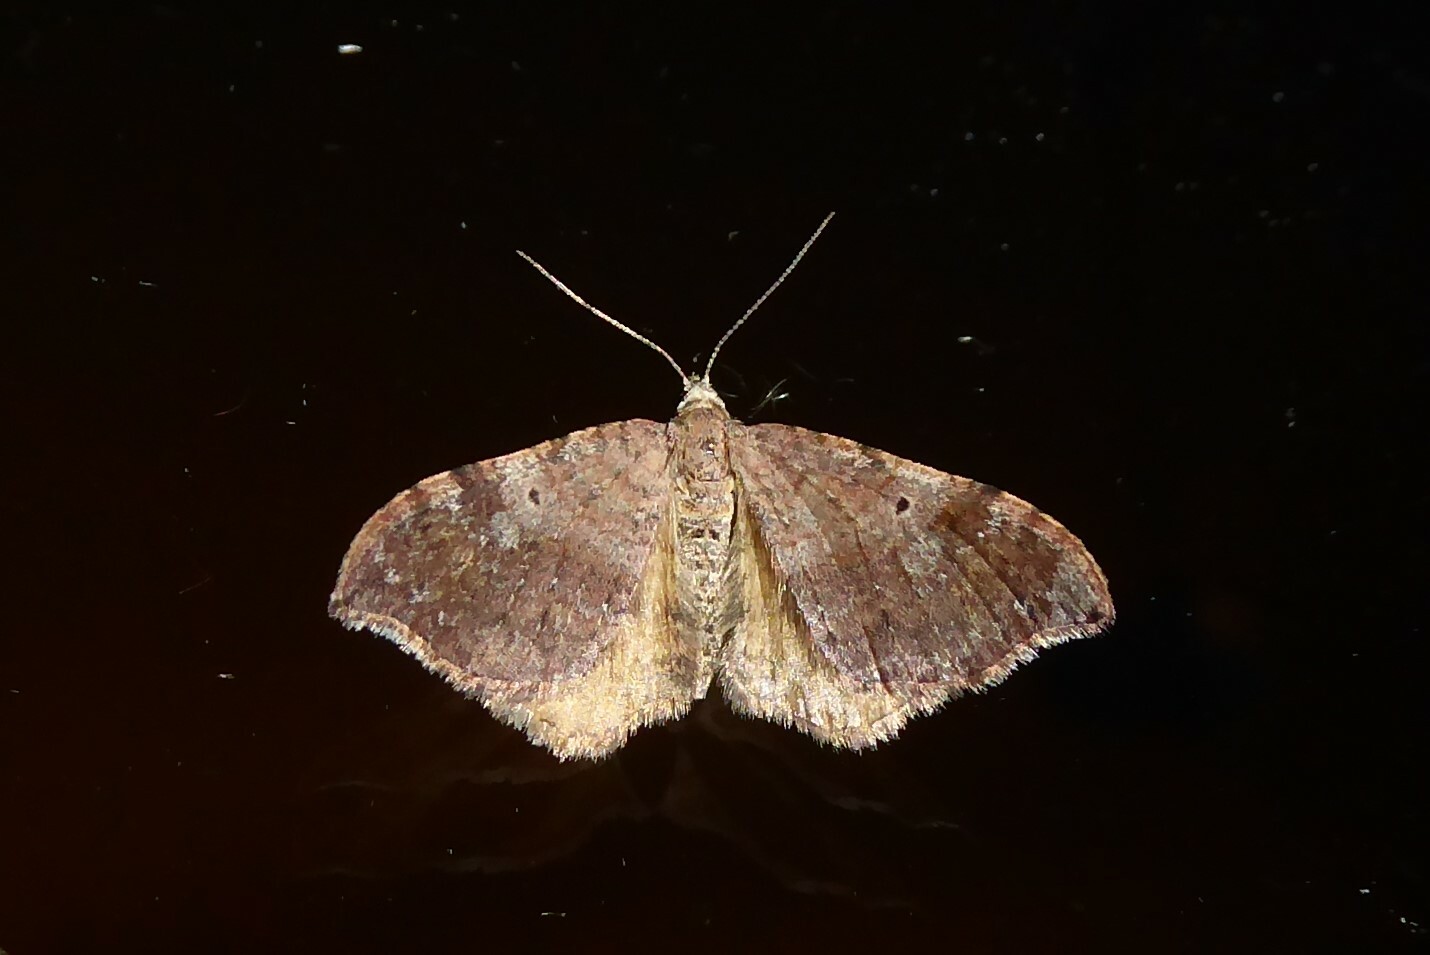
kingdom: Animalia
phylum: Arthropoda
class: Insecta
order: Lepidoptera
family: Geometridae
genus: Homodotis
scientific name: Homodotis megaspilata
